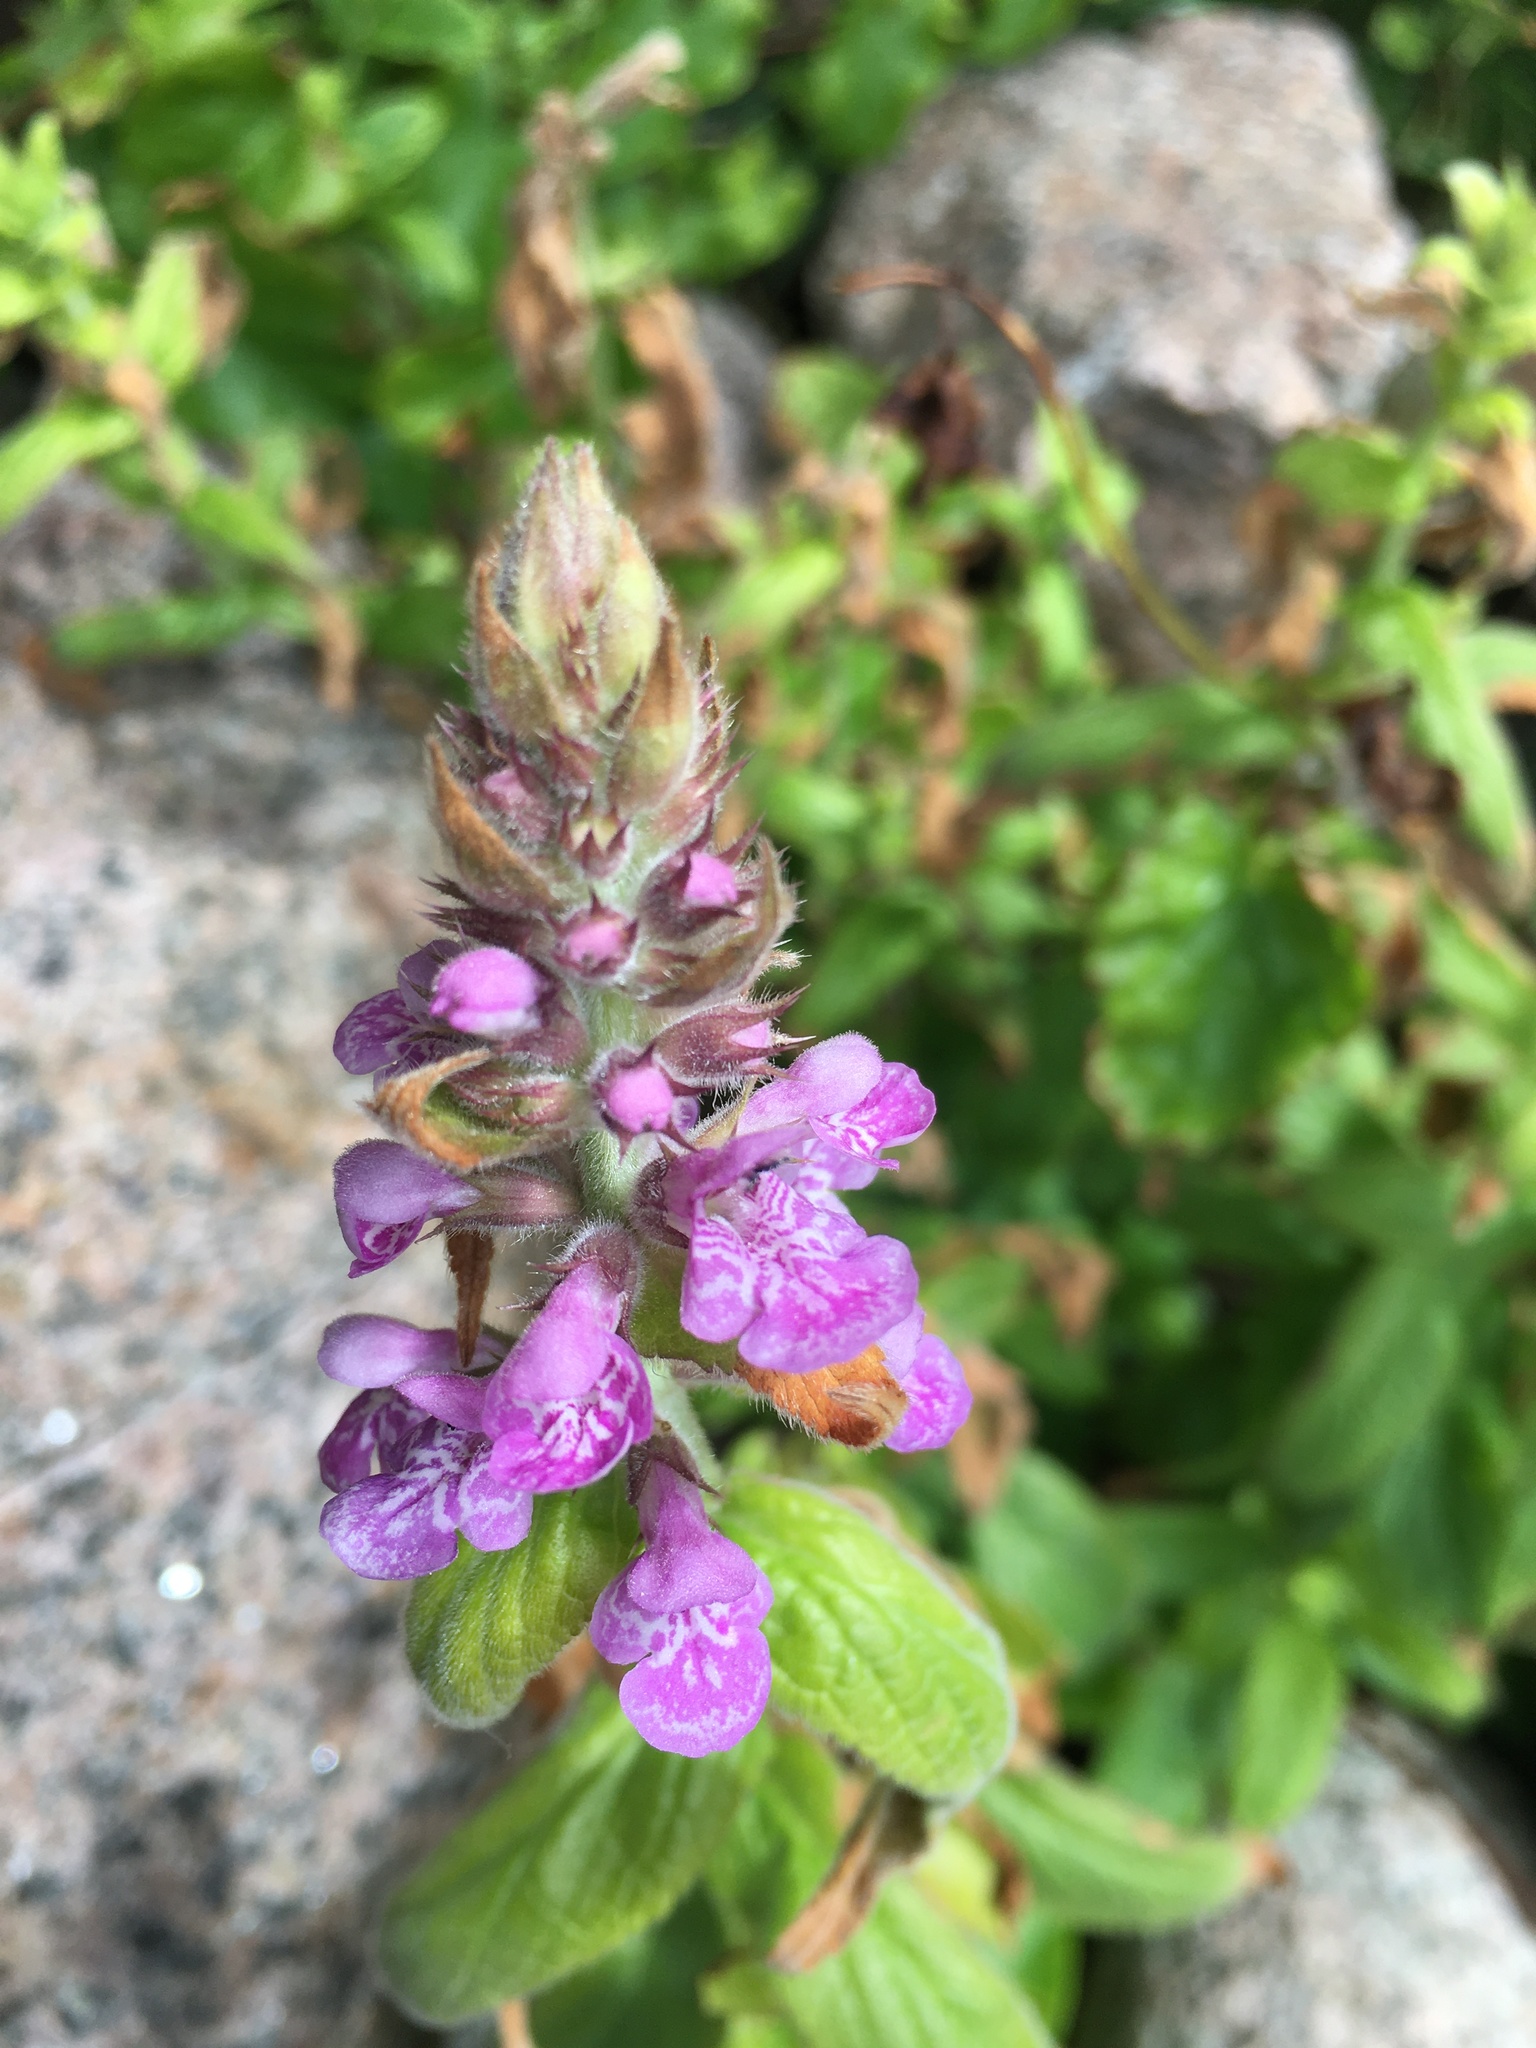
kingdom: Plantae
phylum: Tracheophyta
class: Magnoliopsida
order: Lamiales
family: Lamiaceae
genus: Stachys
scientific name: Stachys palustris
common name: Marsh woundwort
